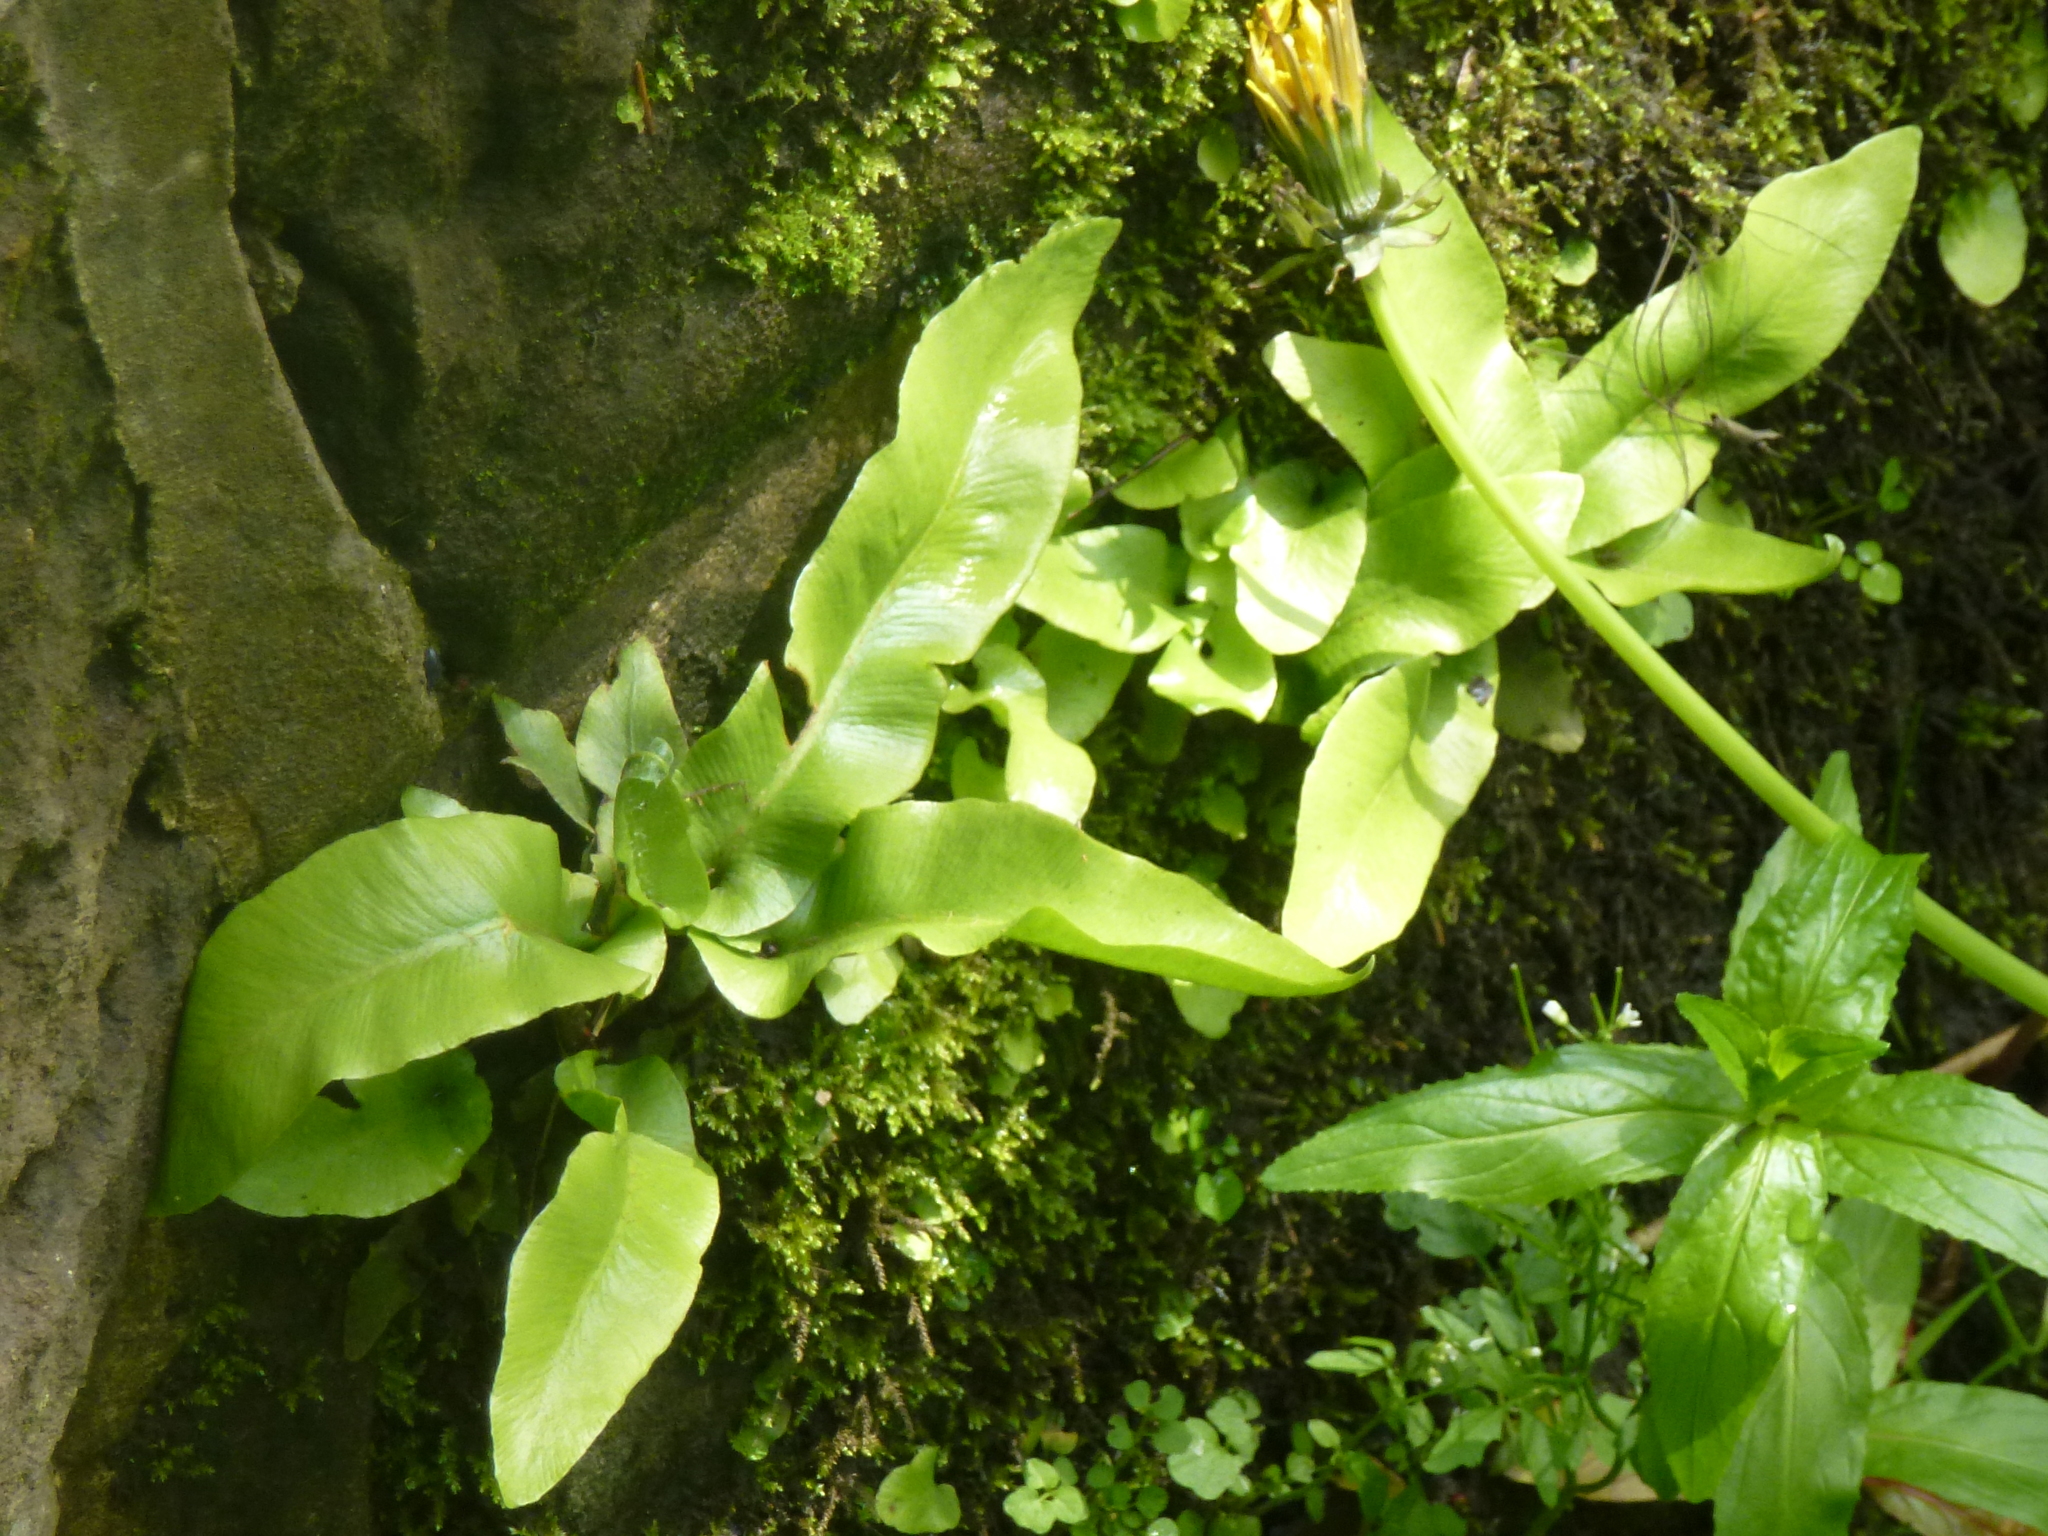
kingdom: Plantae
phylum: Tracheophyta
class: Polypodiopsida
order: Polypodiales
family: Aspleniaceae
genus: Asplenium
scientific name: Asplenium scolopendrium
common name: Hart's-tongue fern
